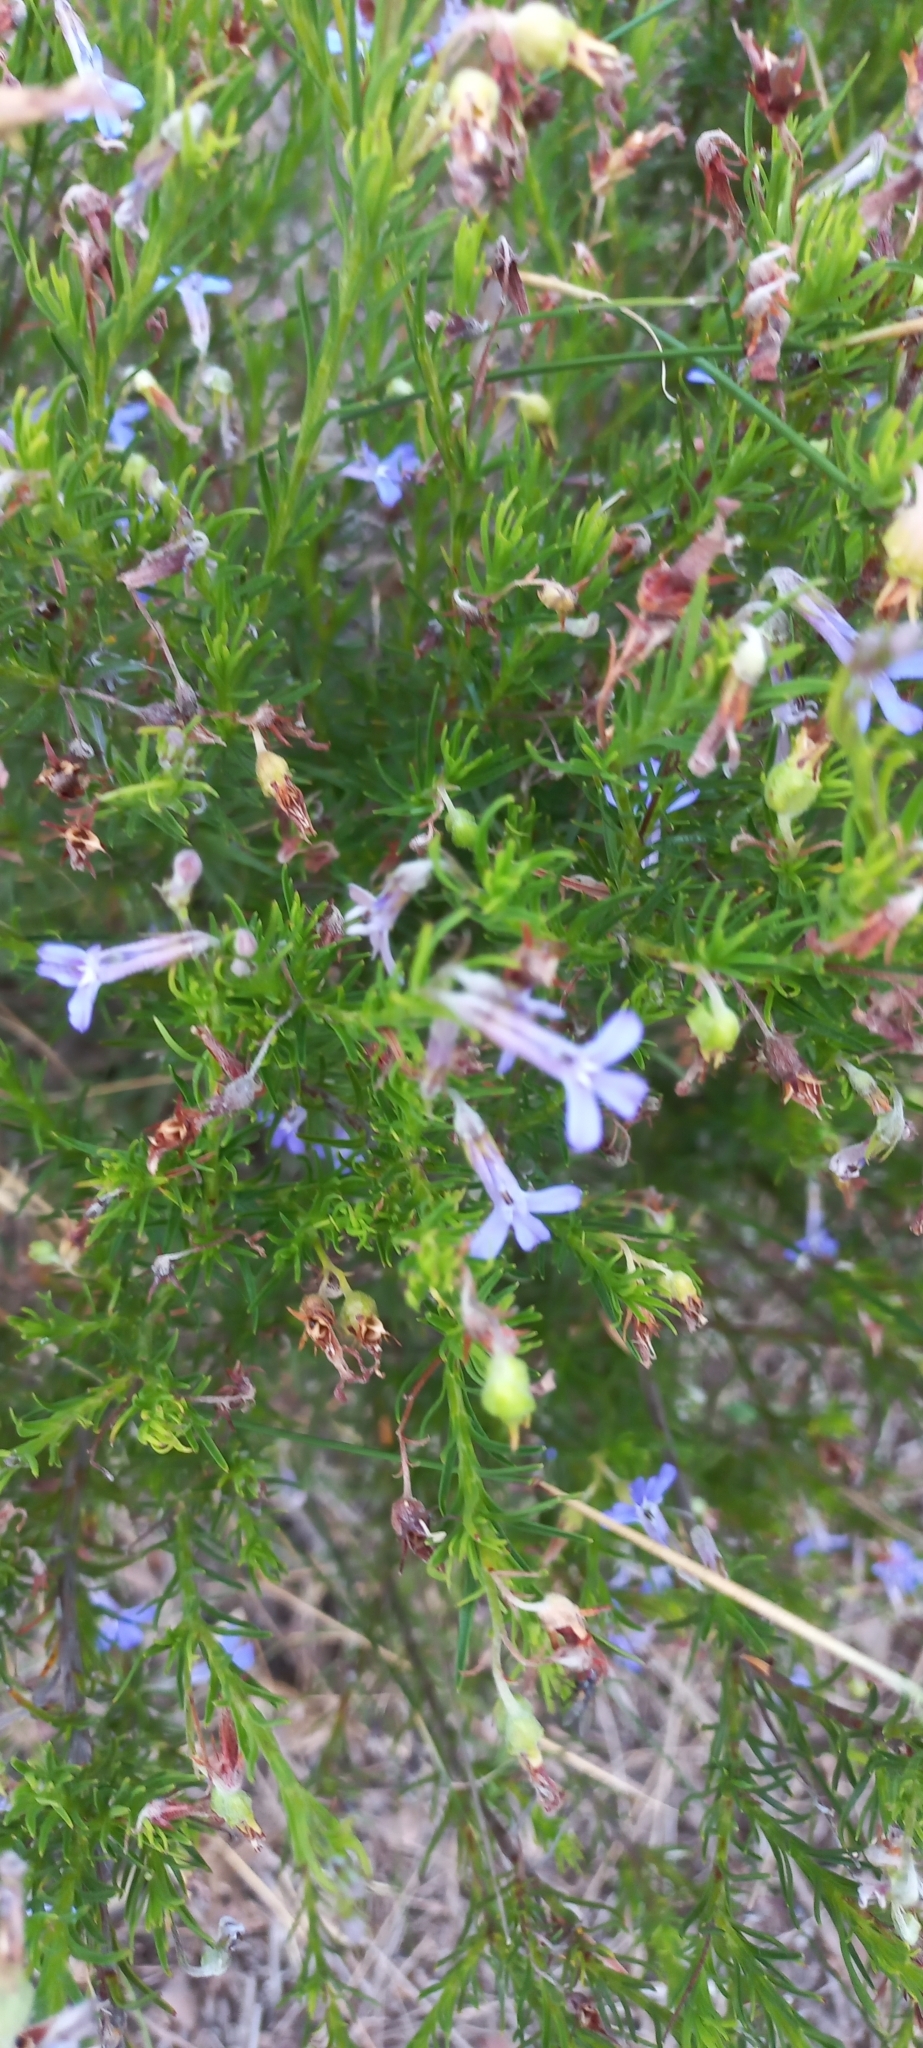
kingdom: Plantae
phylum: Tracheophyta
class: Magnoliopsida
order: Asterales
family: Campanulaceae
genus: Lobelia
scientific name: Lobelia pinifolia
